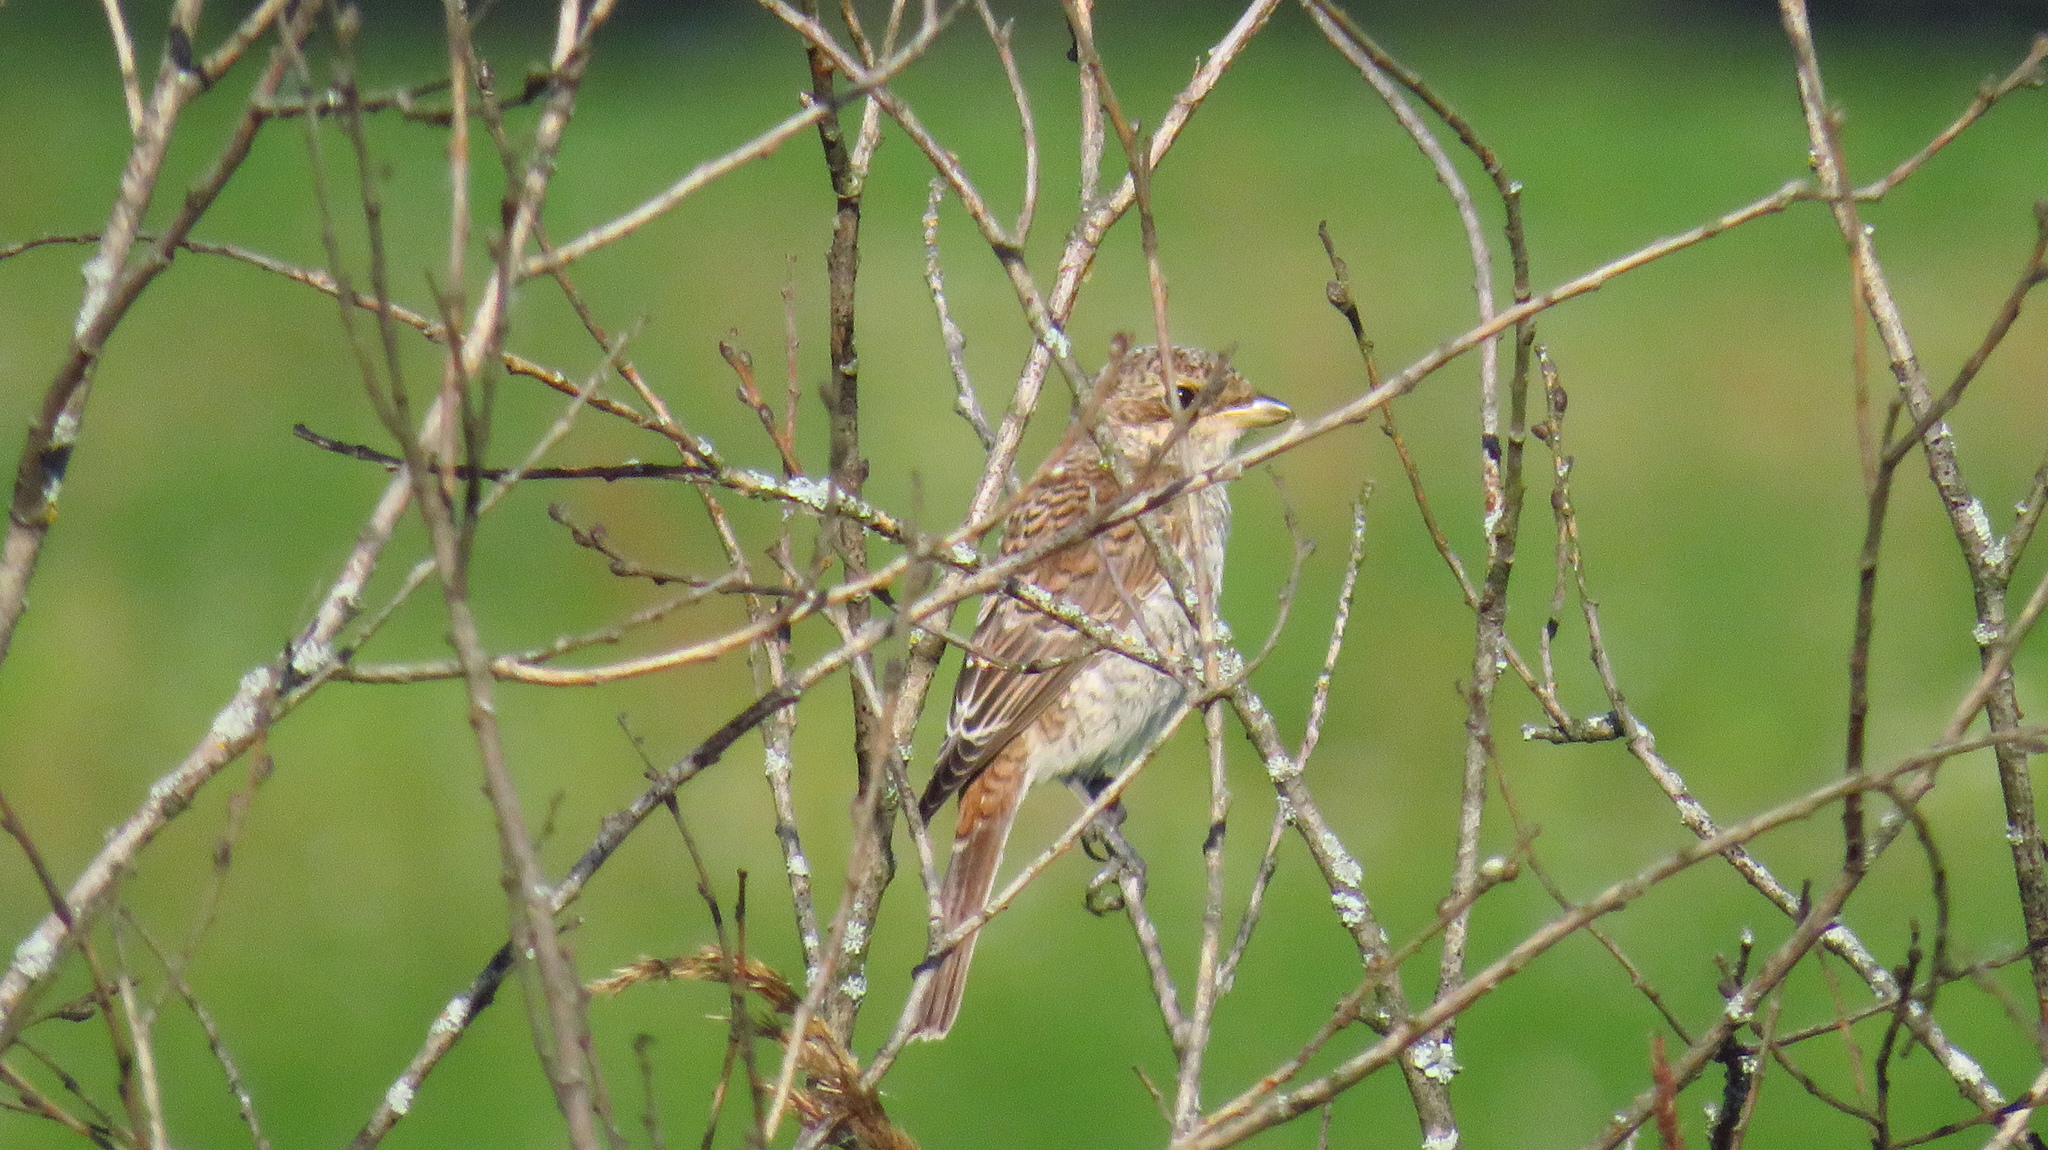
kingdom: Animalia
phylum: Chordata
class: Aves
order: Passeriformes
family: Laniidae
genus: Lanius
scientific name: Lanius collurio
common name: Red-backed shrike
